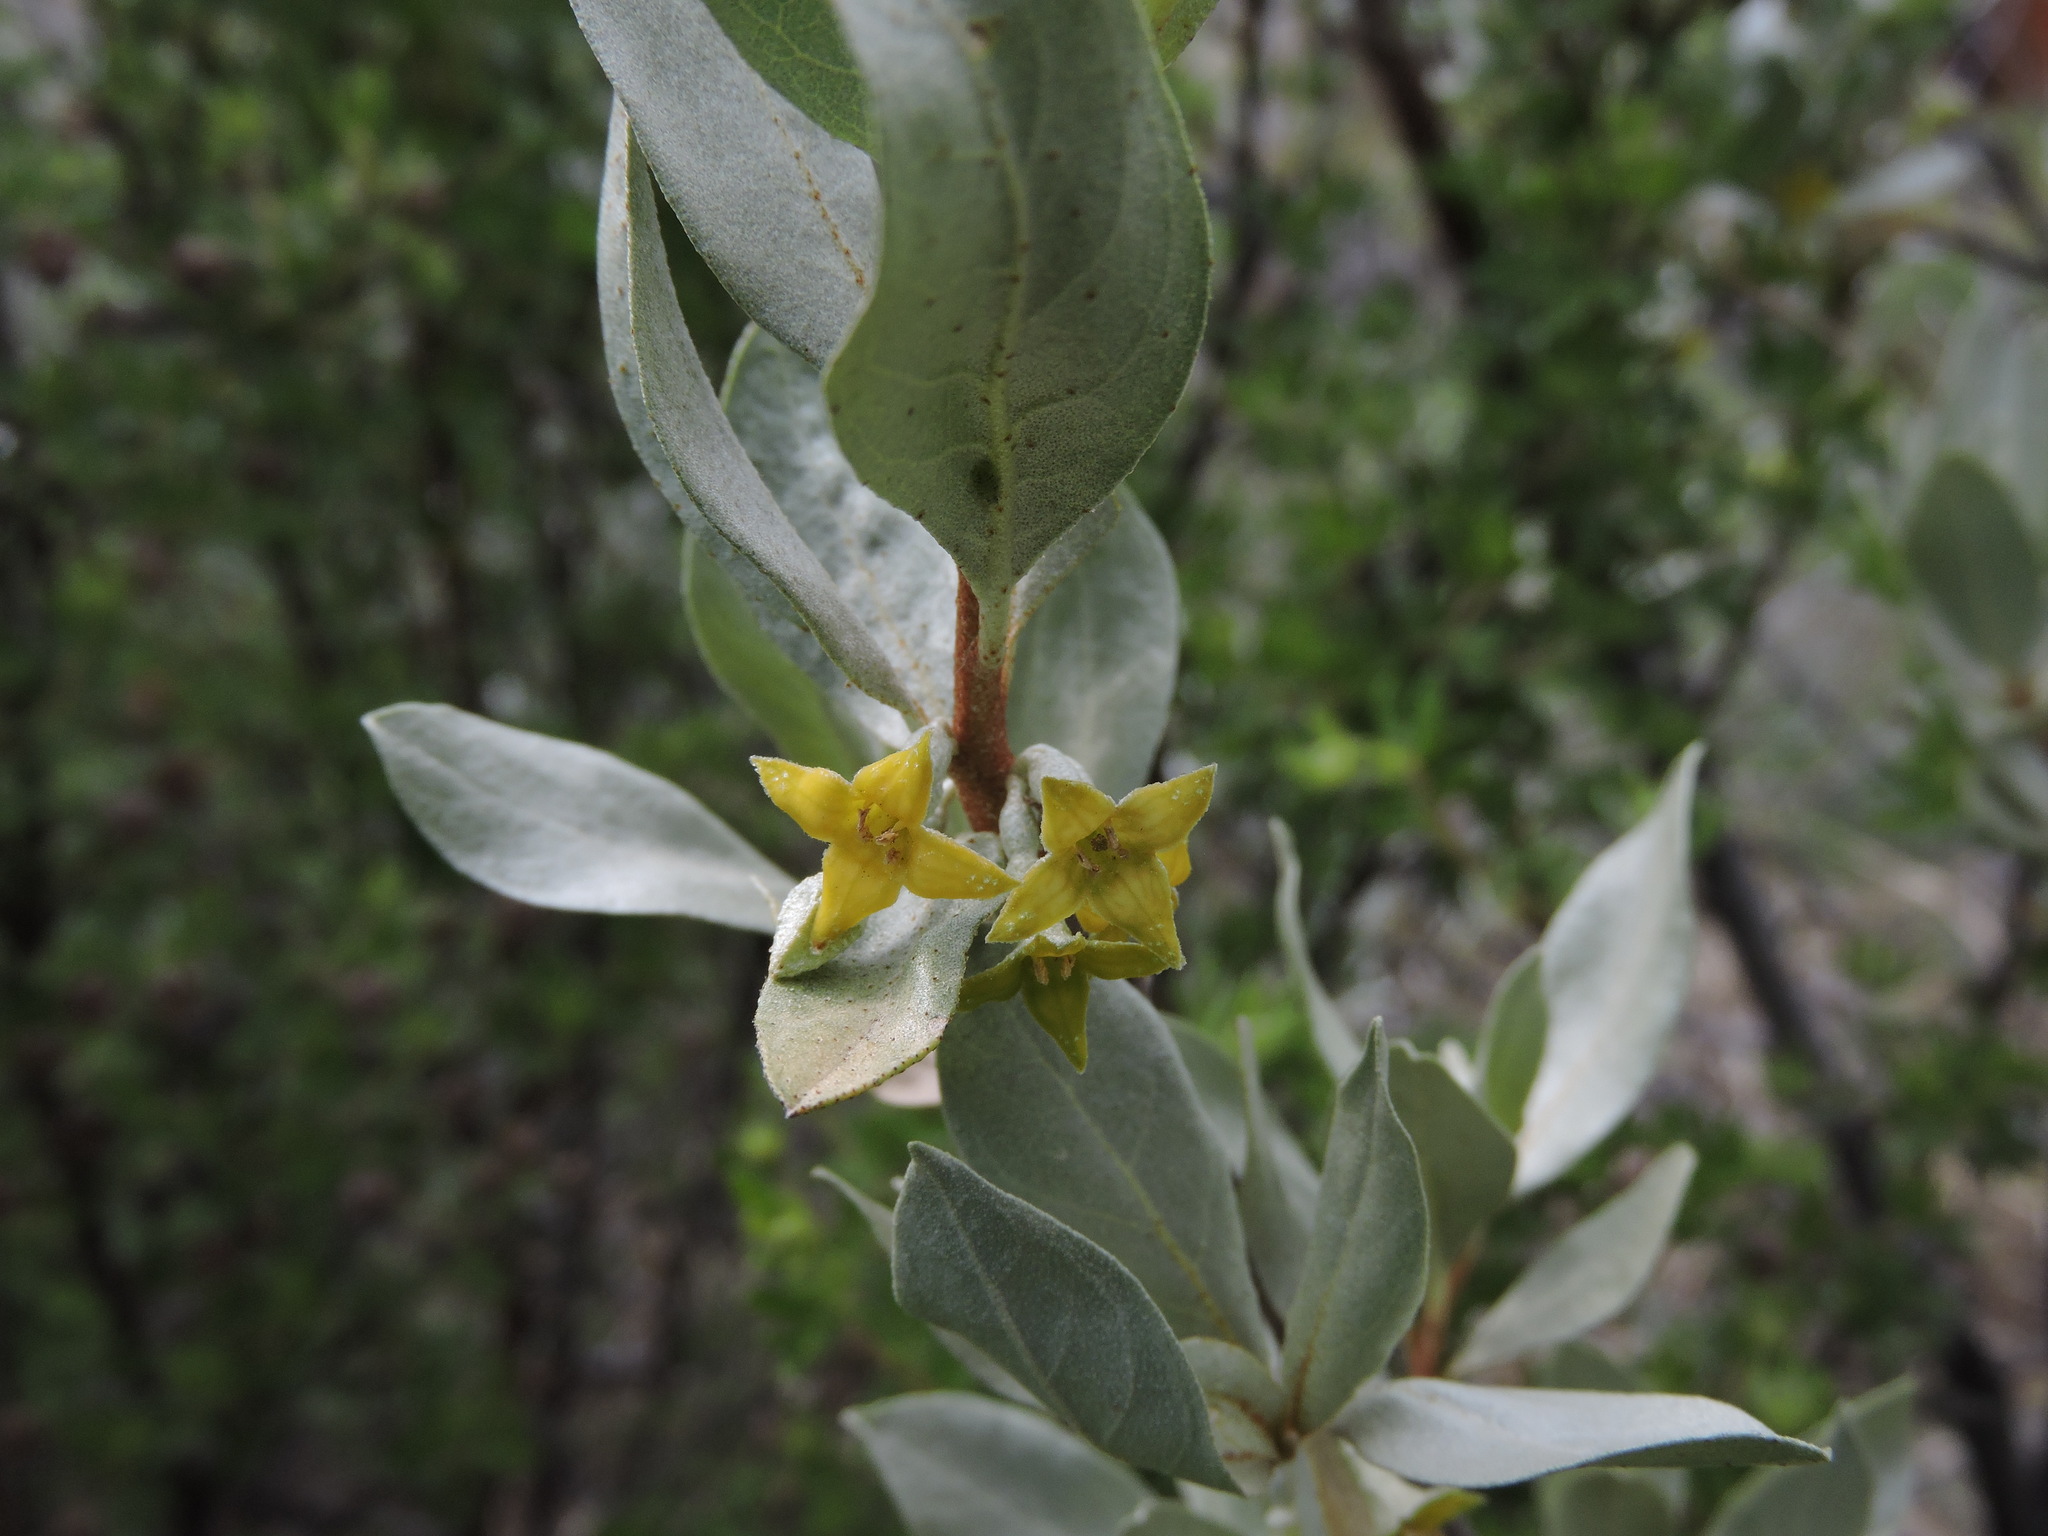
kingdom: Plantae
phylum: Tracheophyta
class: Magnoliopsida
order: Rosales
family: Elaeagnaceae
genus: Elaeagnus
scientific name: Elaeagnus commutata
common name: Silverberry
